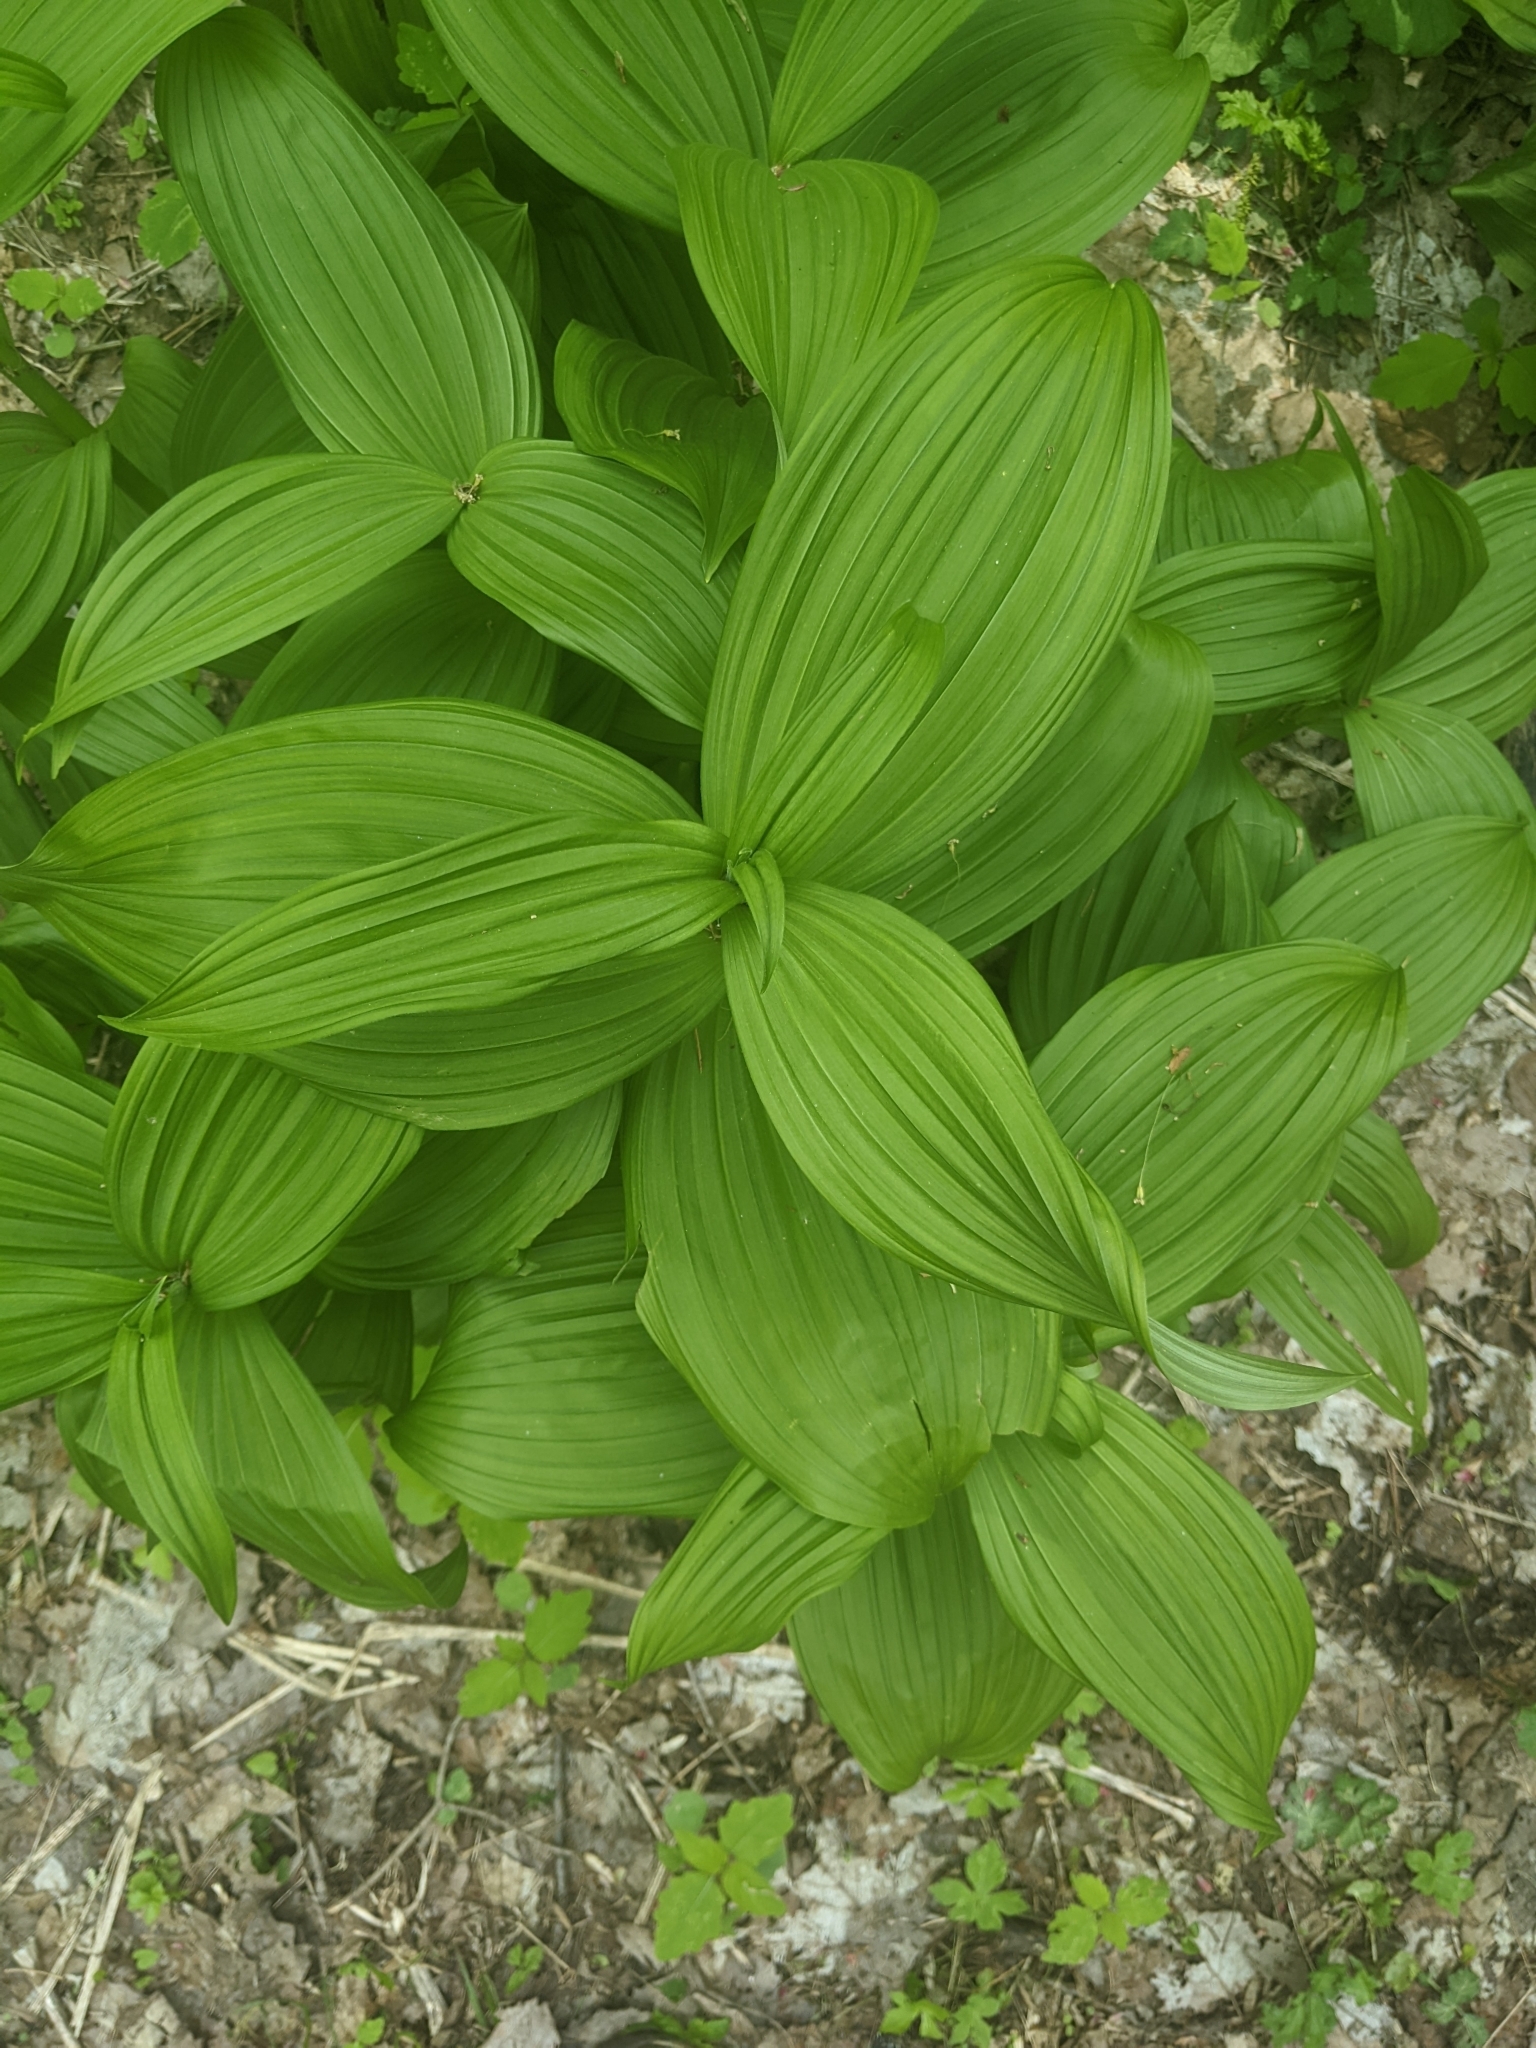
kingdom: Plantae
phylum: Tracheophyta
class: Liliopsida
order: Liliales
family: Melanthiaceae
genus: Veratrum
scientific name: Veratrum viride
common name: American false hellebore
